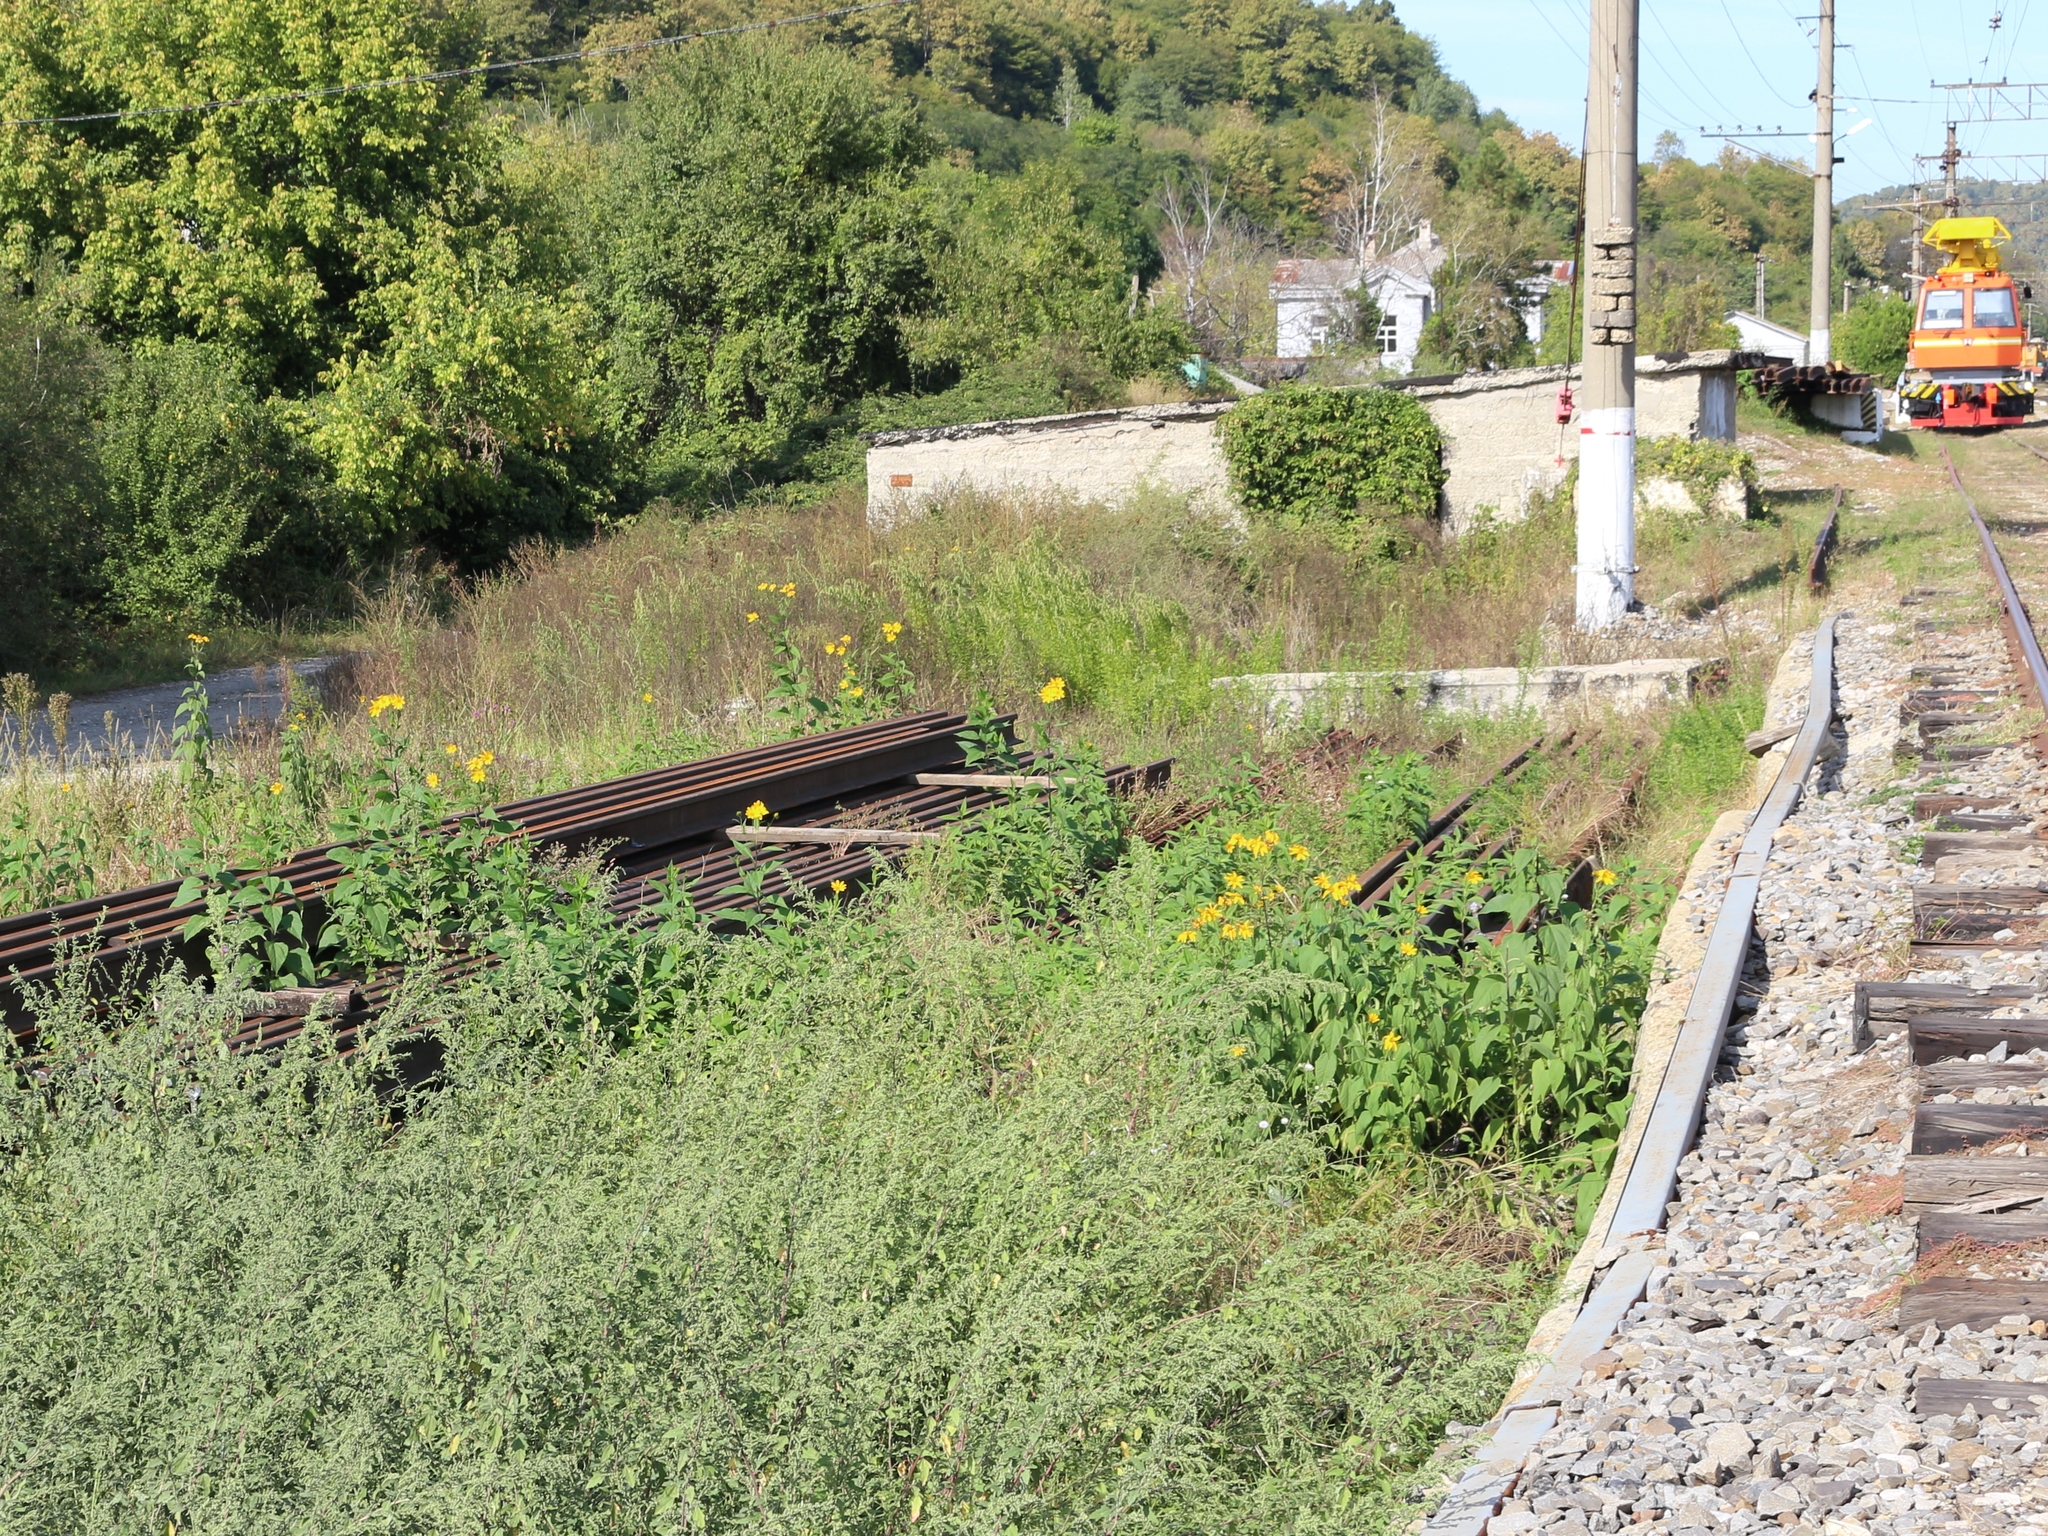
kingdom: Plantae
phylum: Tracheophyta
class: Magnoliopsida
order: Asterales
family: Asteraceae
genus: Helianthus
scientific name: Helianthus tuberosus
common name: Jerusalem artichoke
